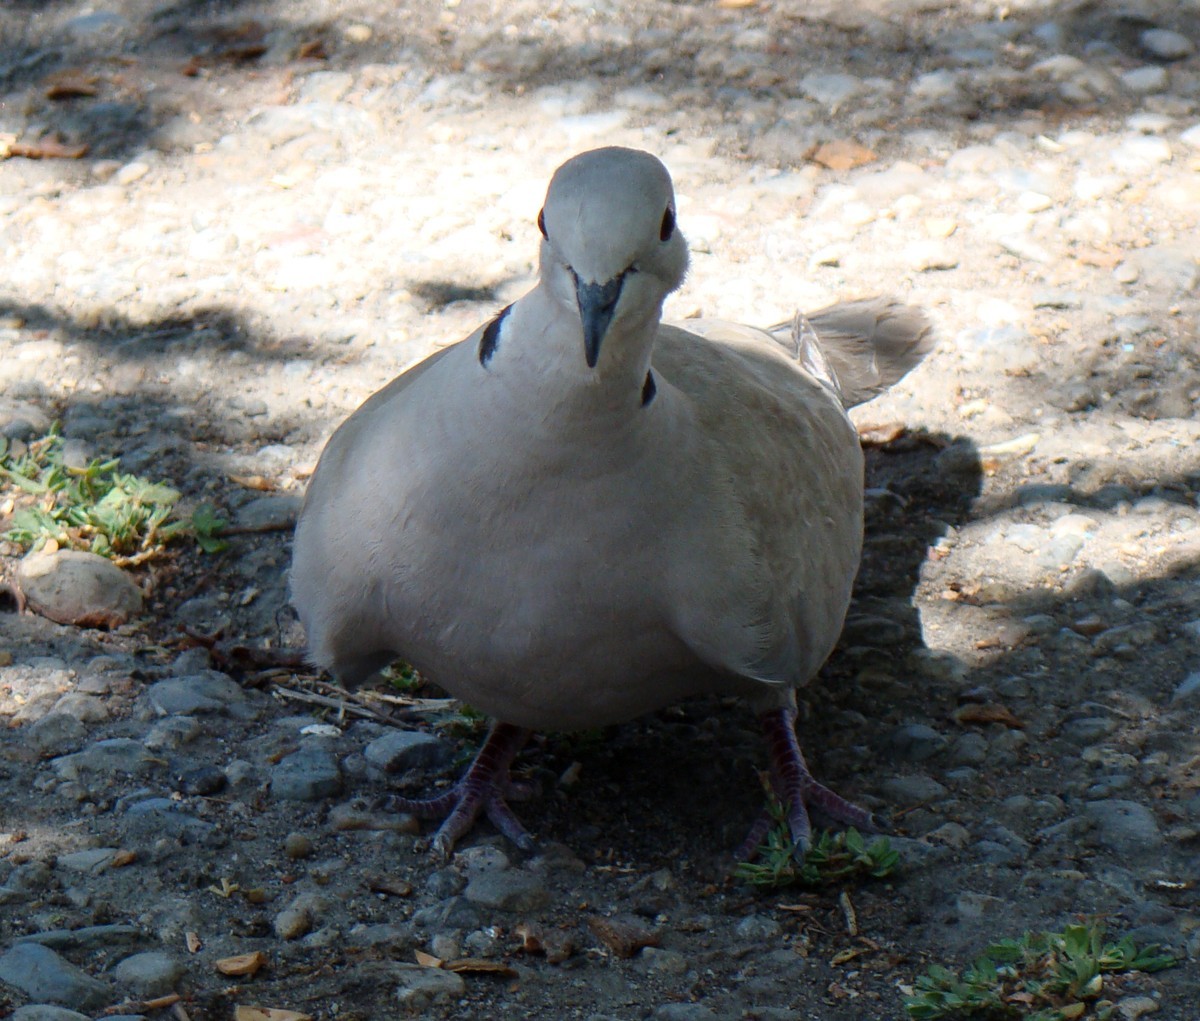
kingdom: Animalia
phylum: Chordata
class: Aves
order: Columbiformes
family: Columbidae
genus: Streptopelia
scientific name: Streptopelia decaocto
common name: Eurasian collared dove
